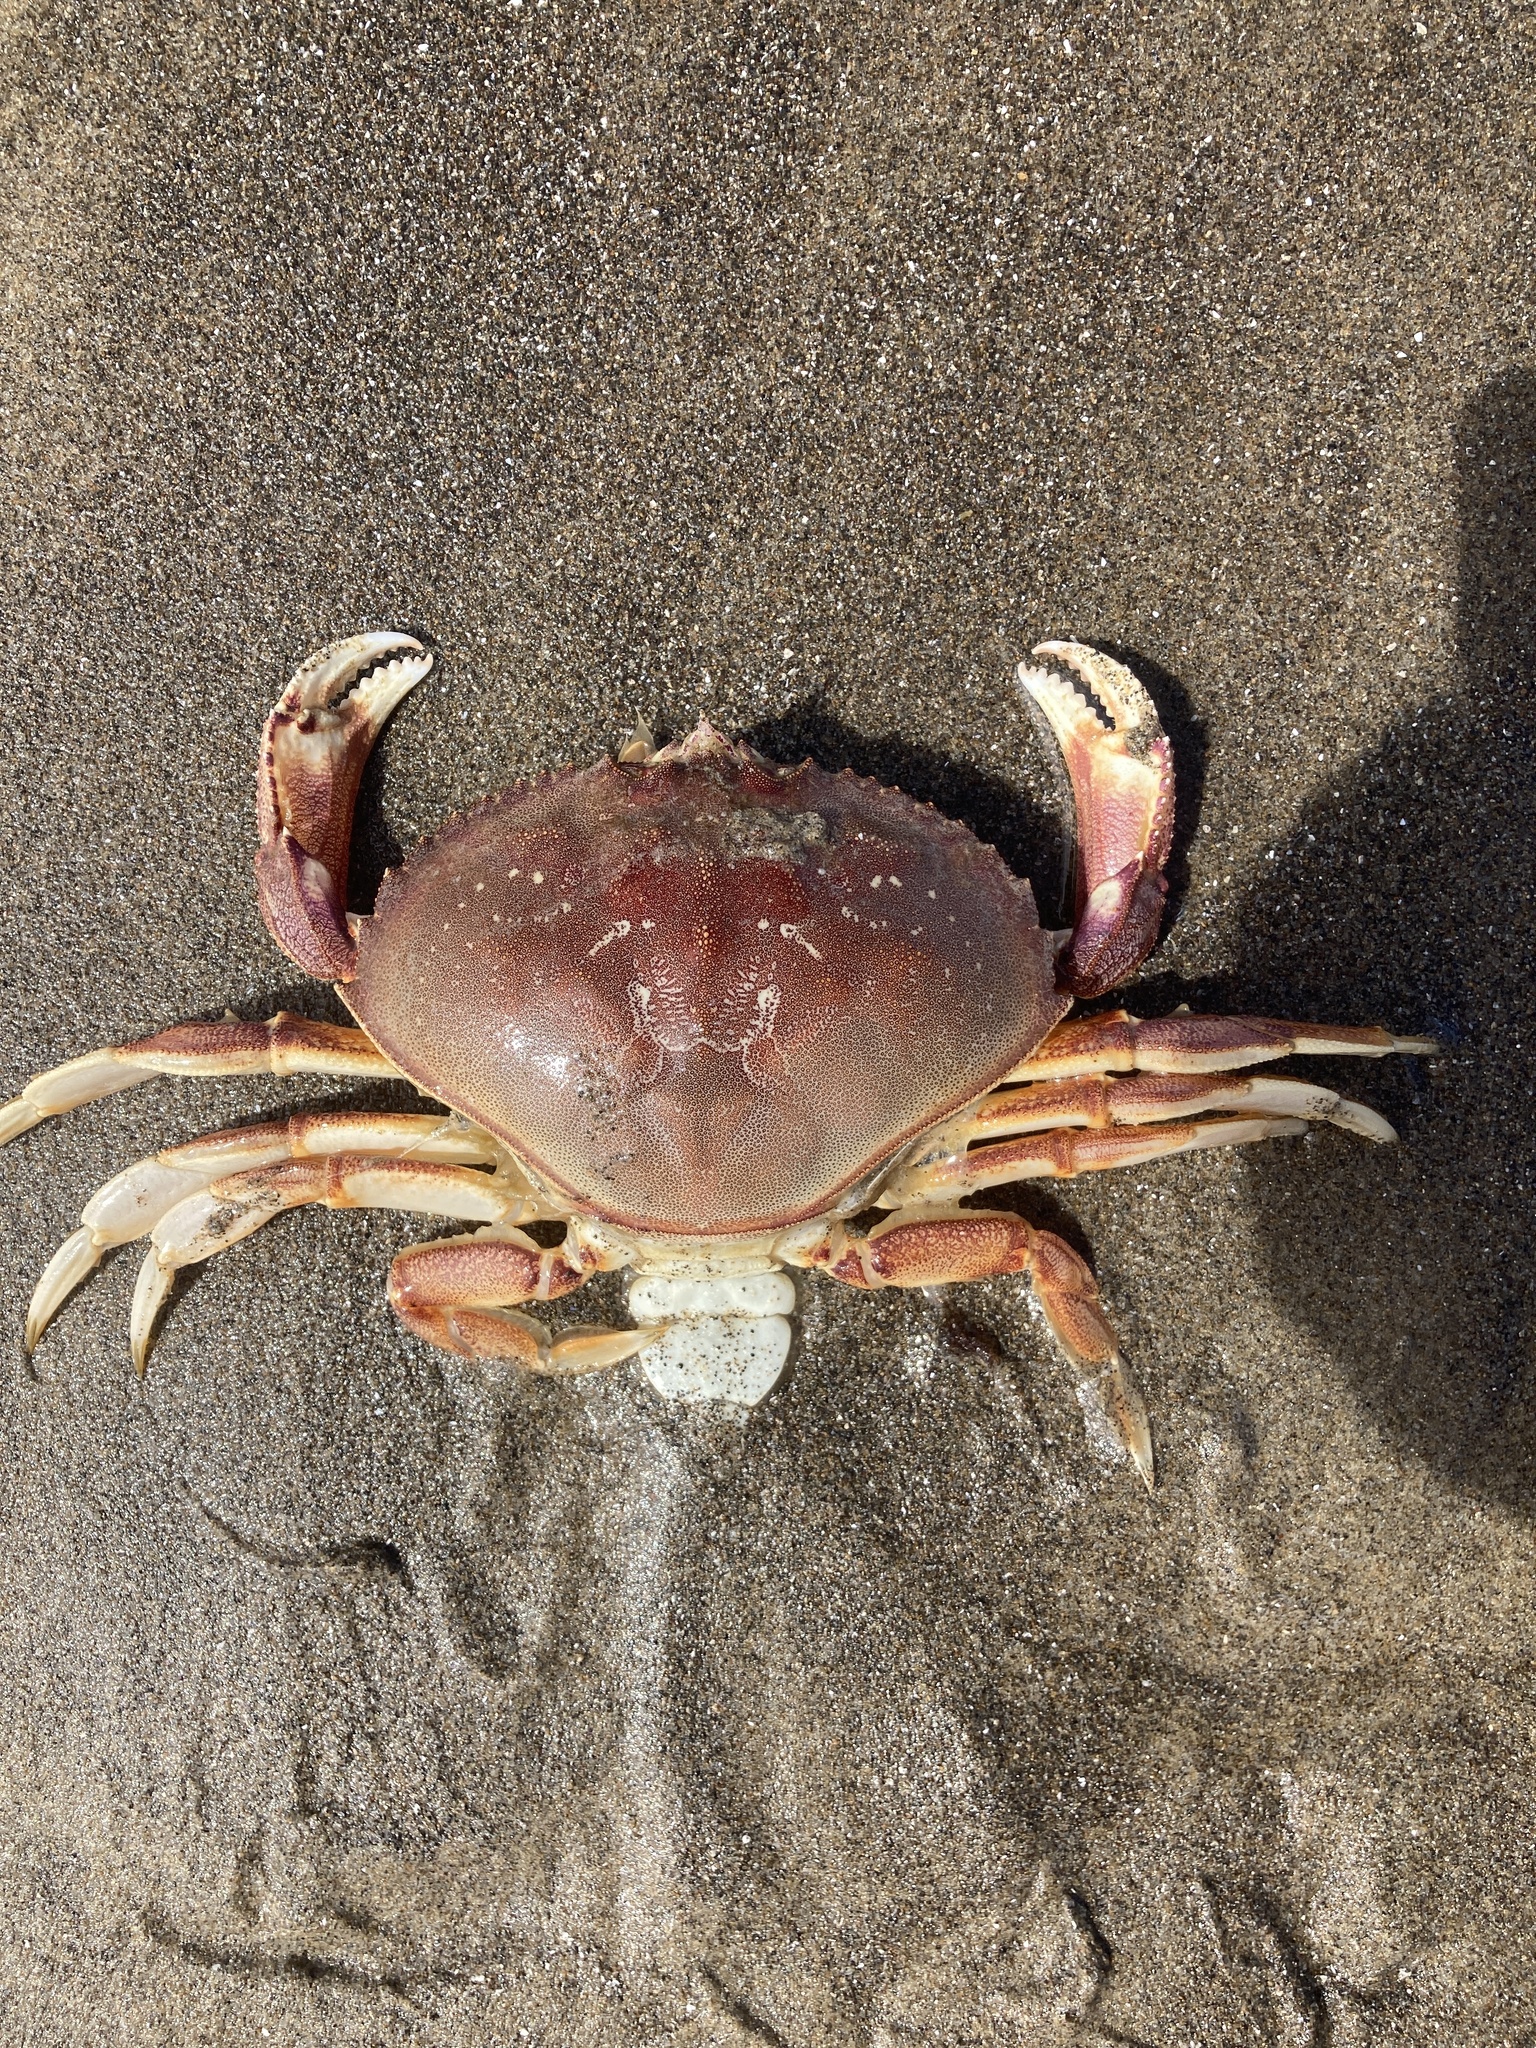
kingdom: Animalia
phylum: Arthropoda
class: Malacostraca
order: Decapoda
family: Cancridae
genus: Metacarcinus
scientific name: Metacarcinus magister
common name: Californian crab
